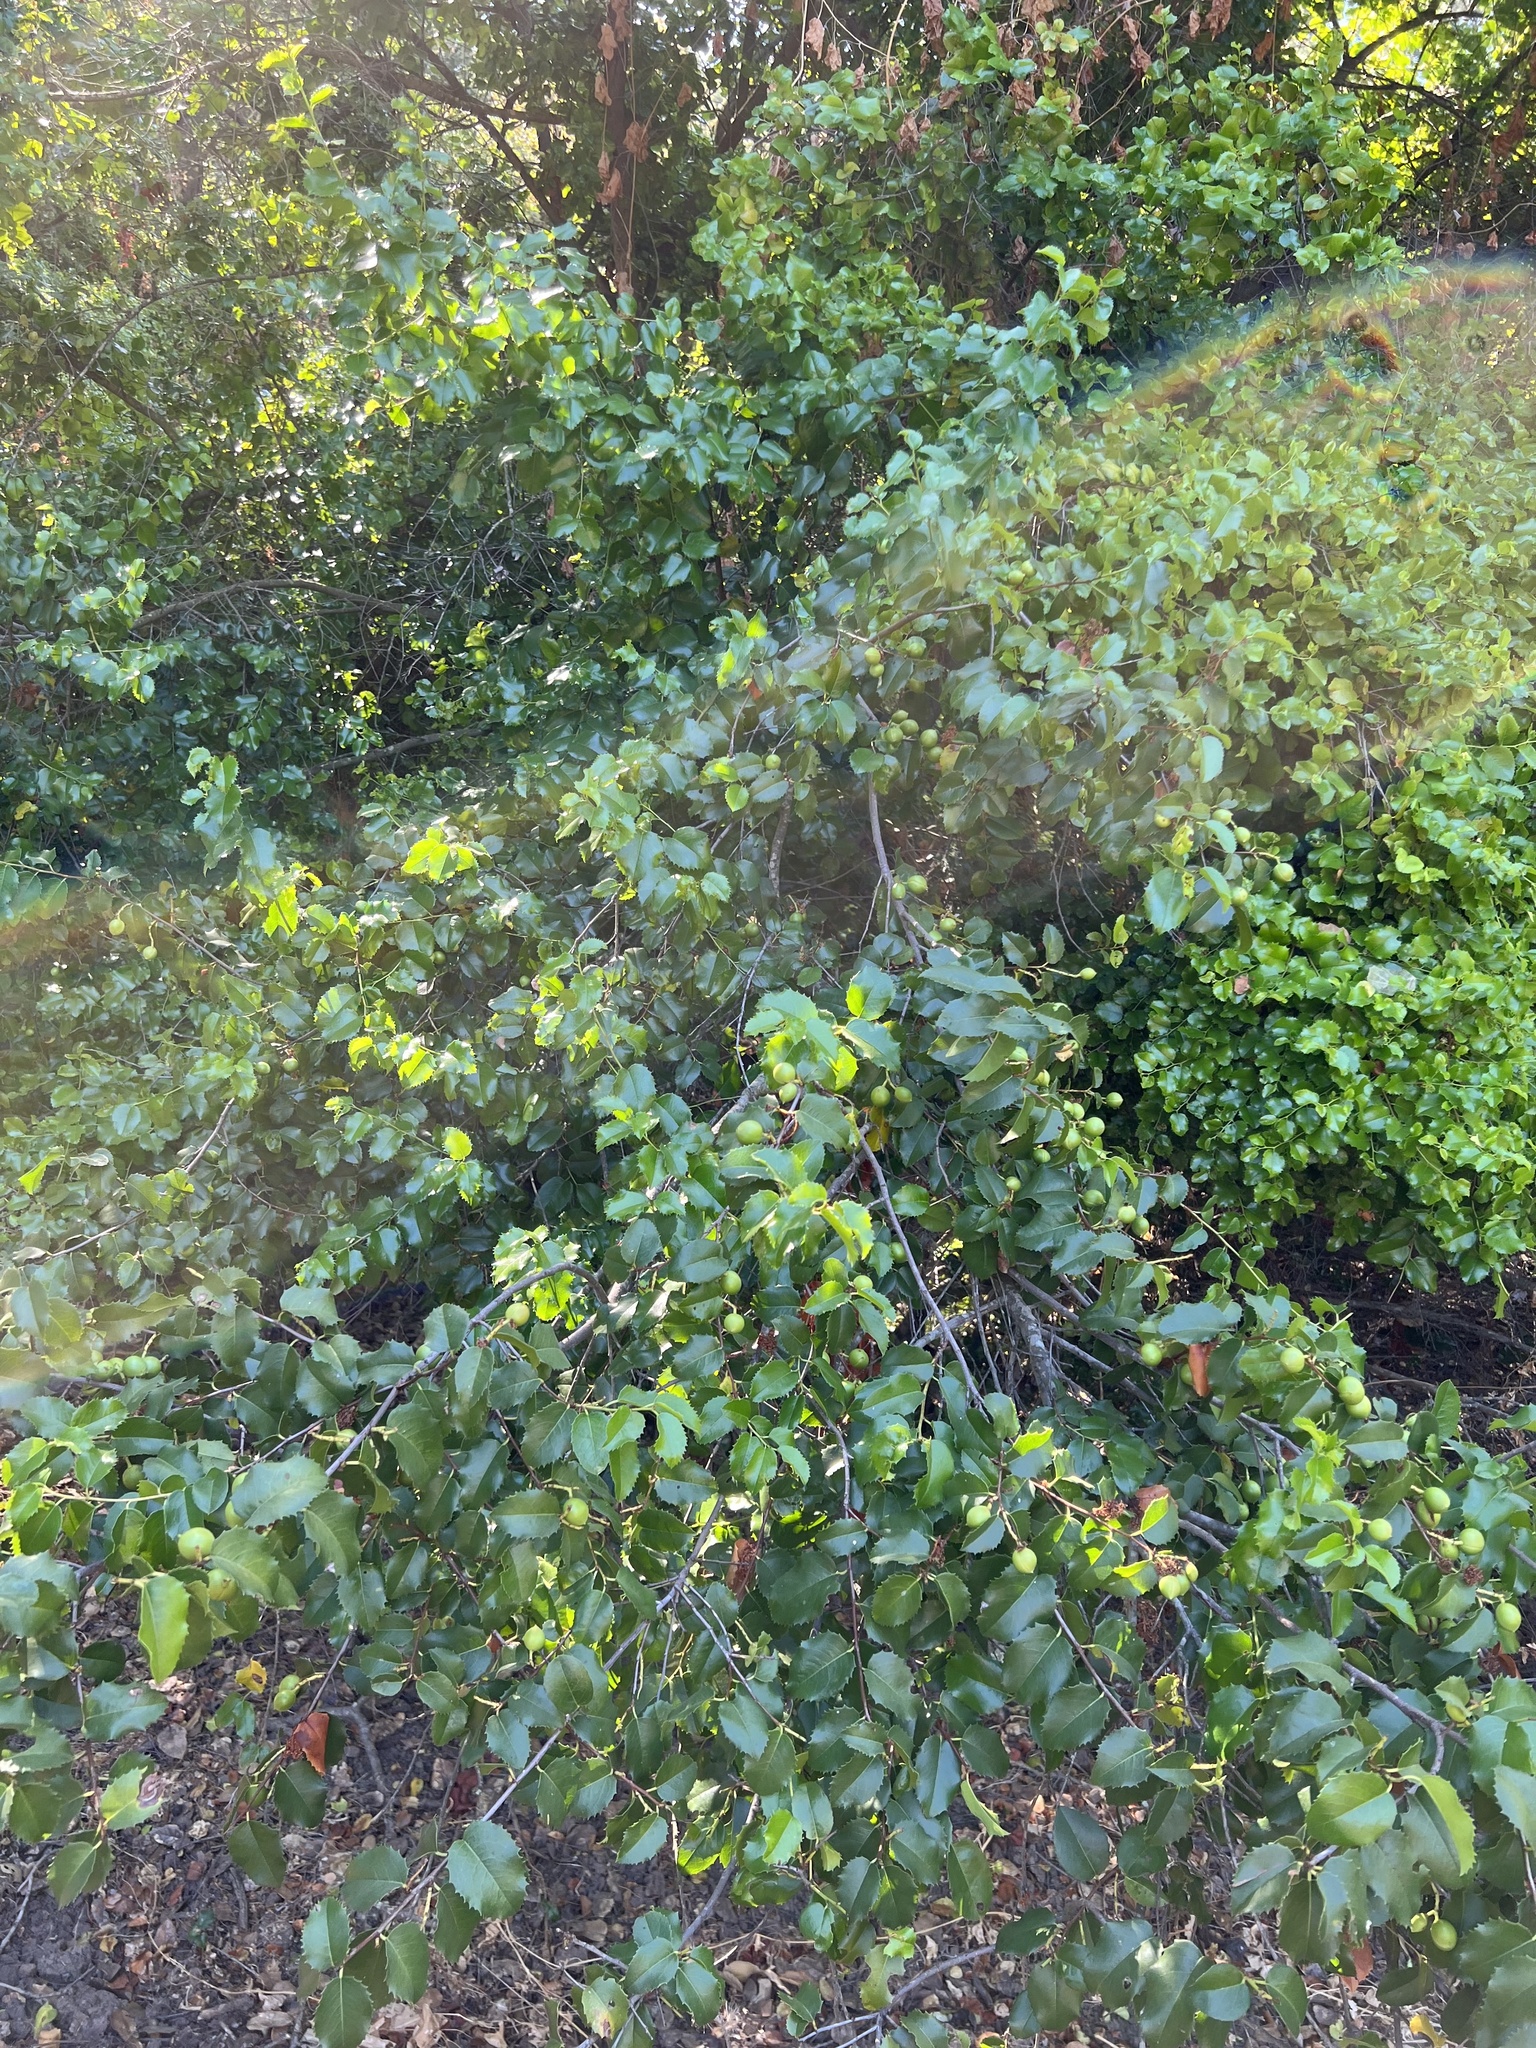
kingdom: Plantae
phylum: Tracheophyta
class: Magnoliopsida
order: Rosales
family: Rosaceae
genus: Prunus
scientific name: Prunus ilicifolia
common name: Hollyleaf cherry
